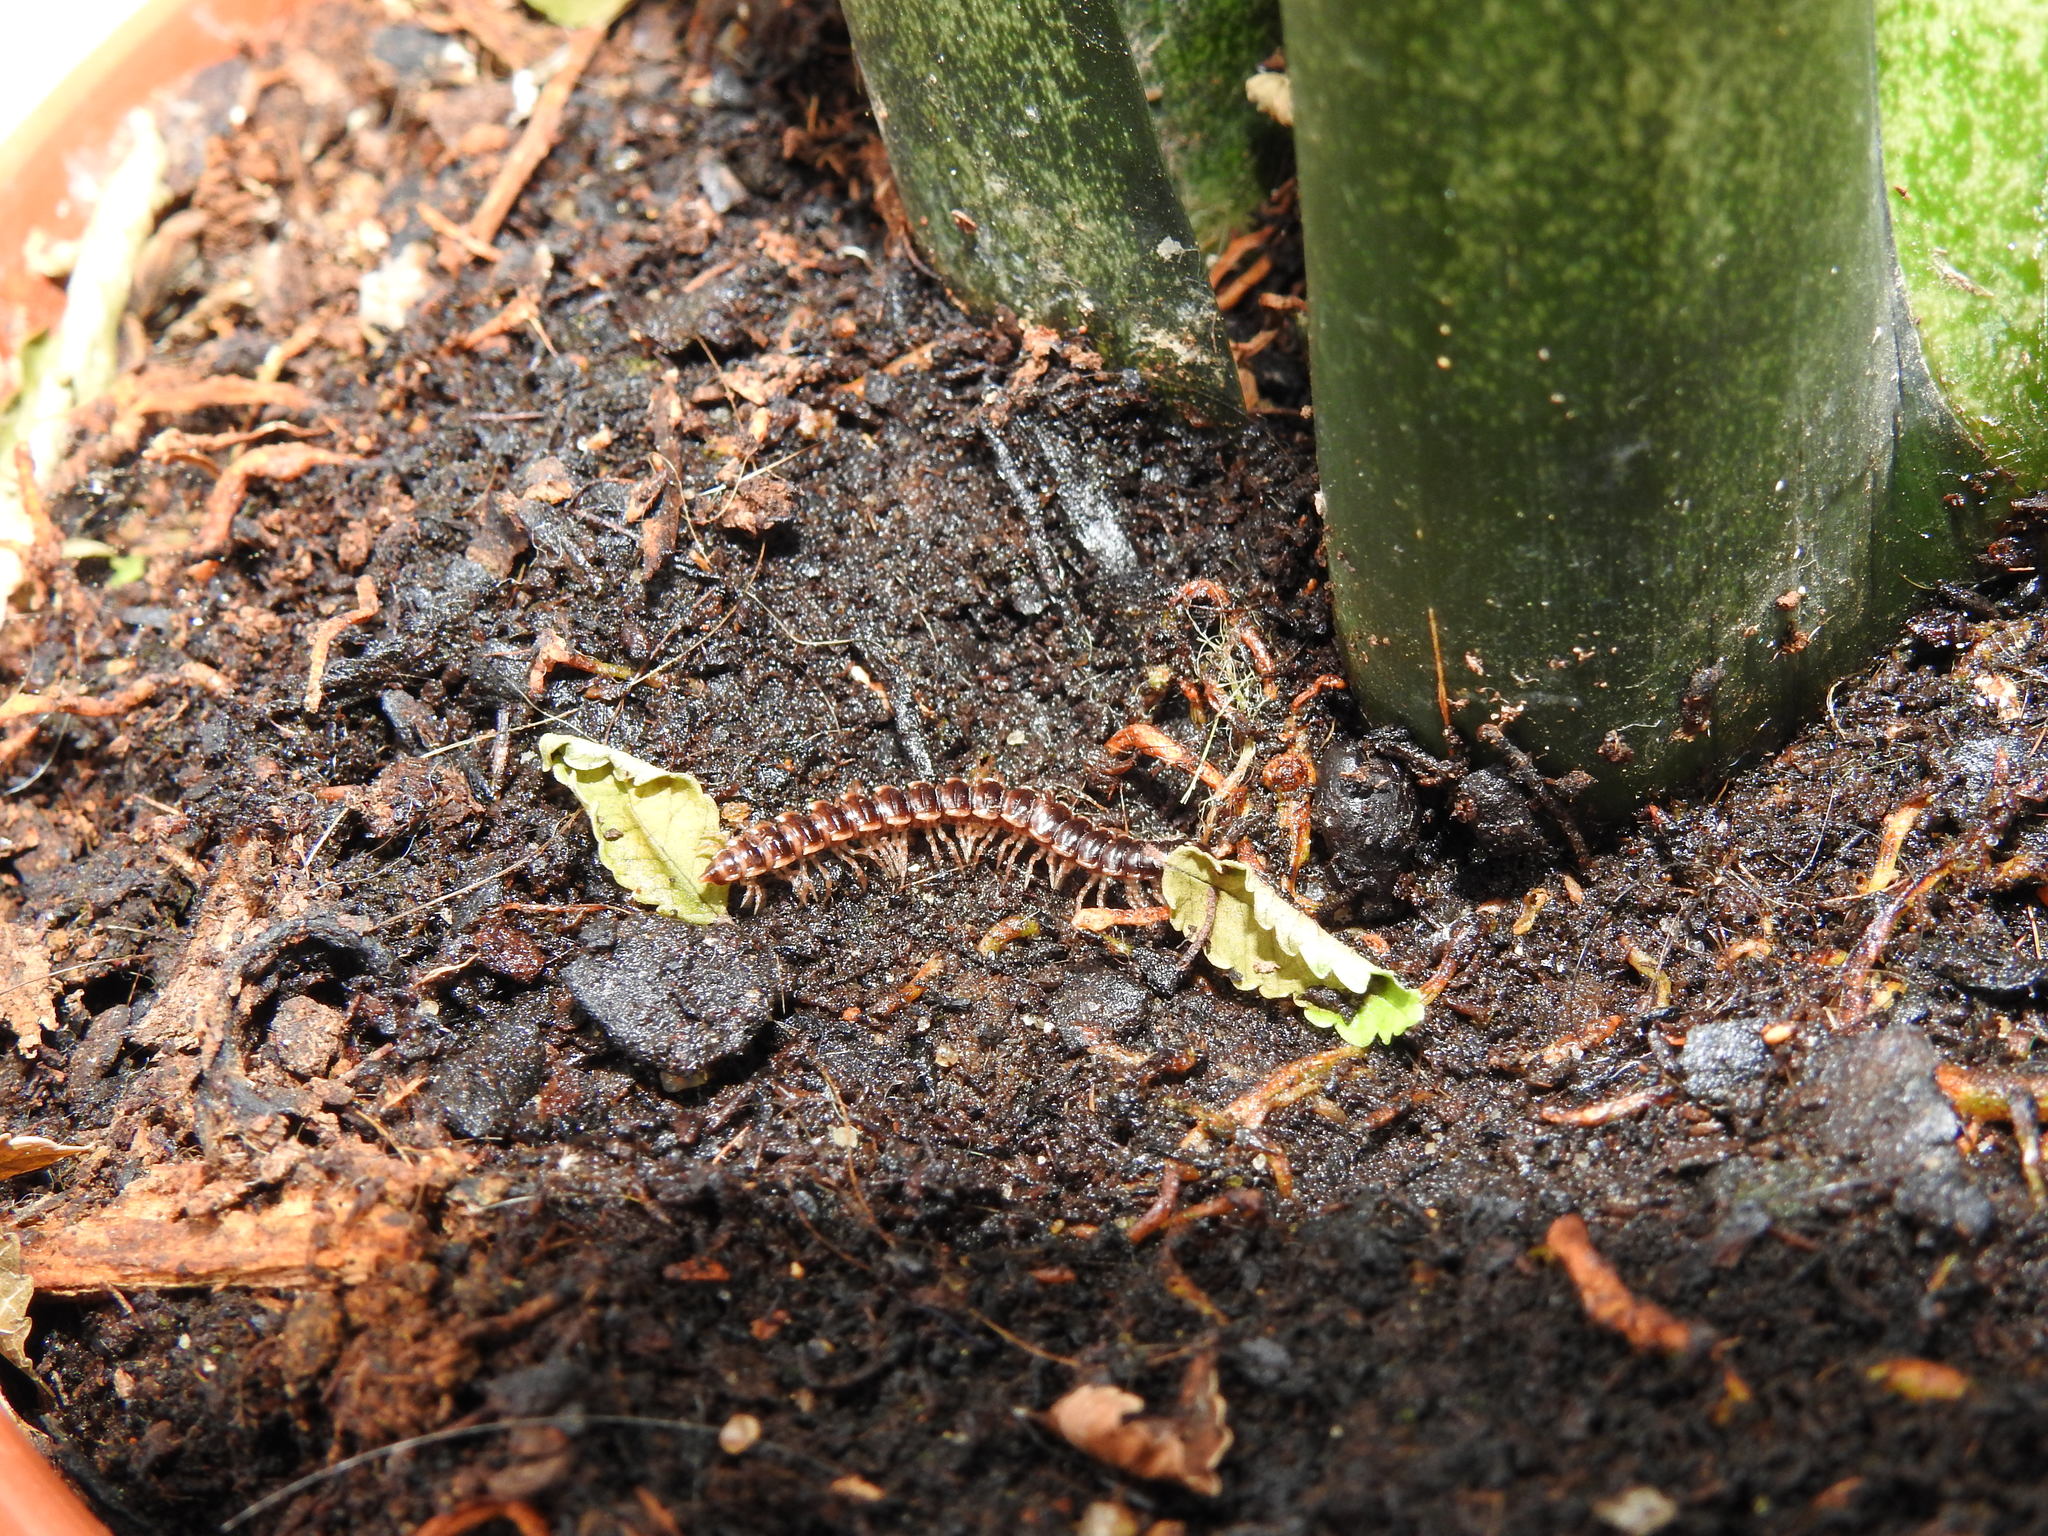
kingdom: Animalia
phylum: Arthropoda
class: Diplopoda
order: Polydesmida
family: Paradoxosomatidae
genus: Oxidus
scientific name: Oxidus gracilis
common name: Greenhouse millipede
